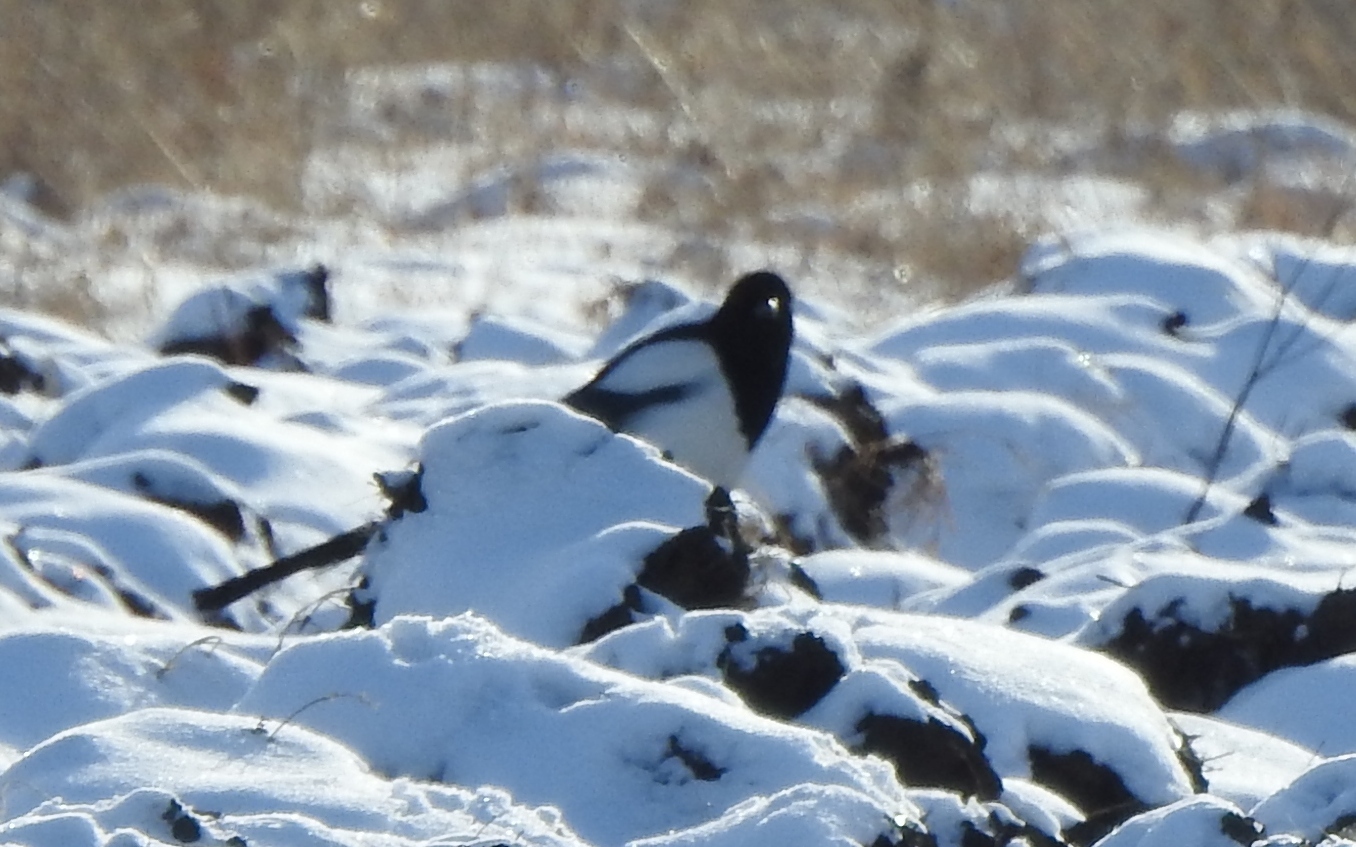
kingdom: Animalia
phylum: Chordata
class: Aves
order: Passeriformes
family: Corvidae
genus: Pica
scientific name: Pica pica
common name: Eurasian magpie
